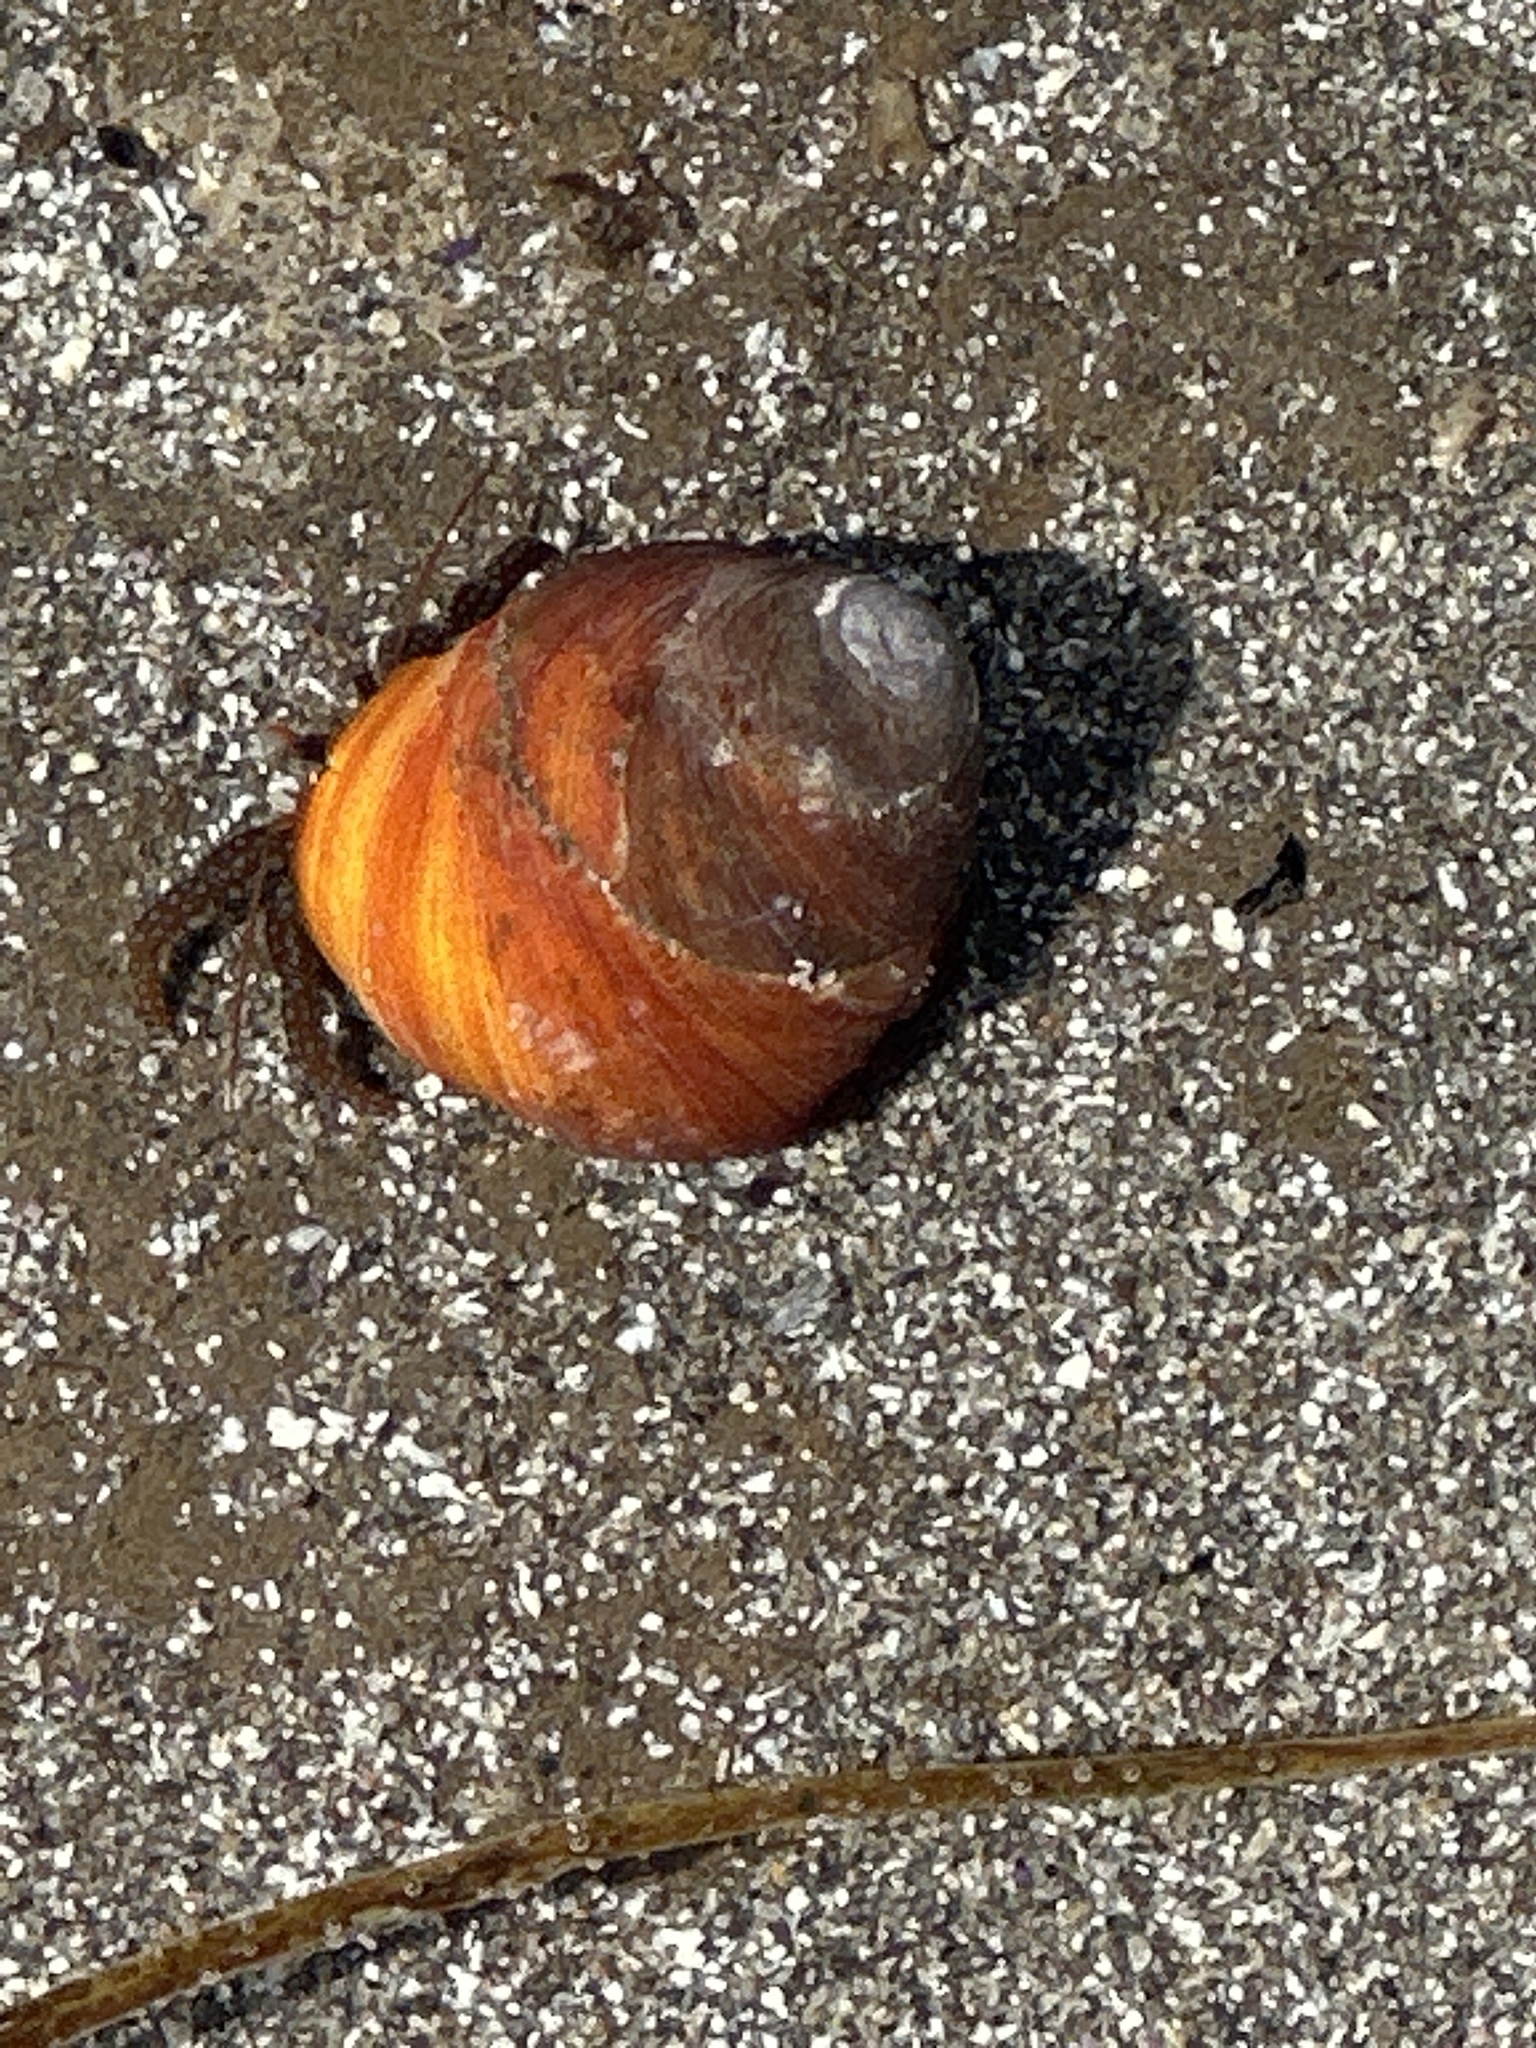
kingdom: Animalia
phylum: Mollusca
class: Gastropoda
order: Trochida
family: Tegulidae
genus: Tegula
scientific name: Tegula brunnea
